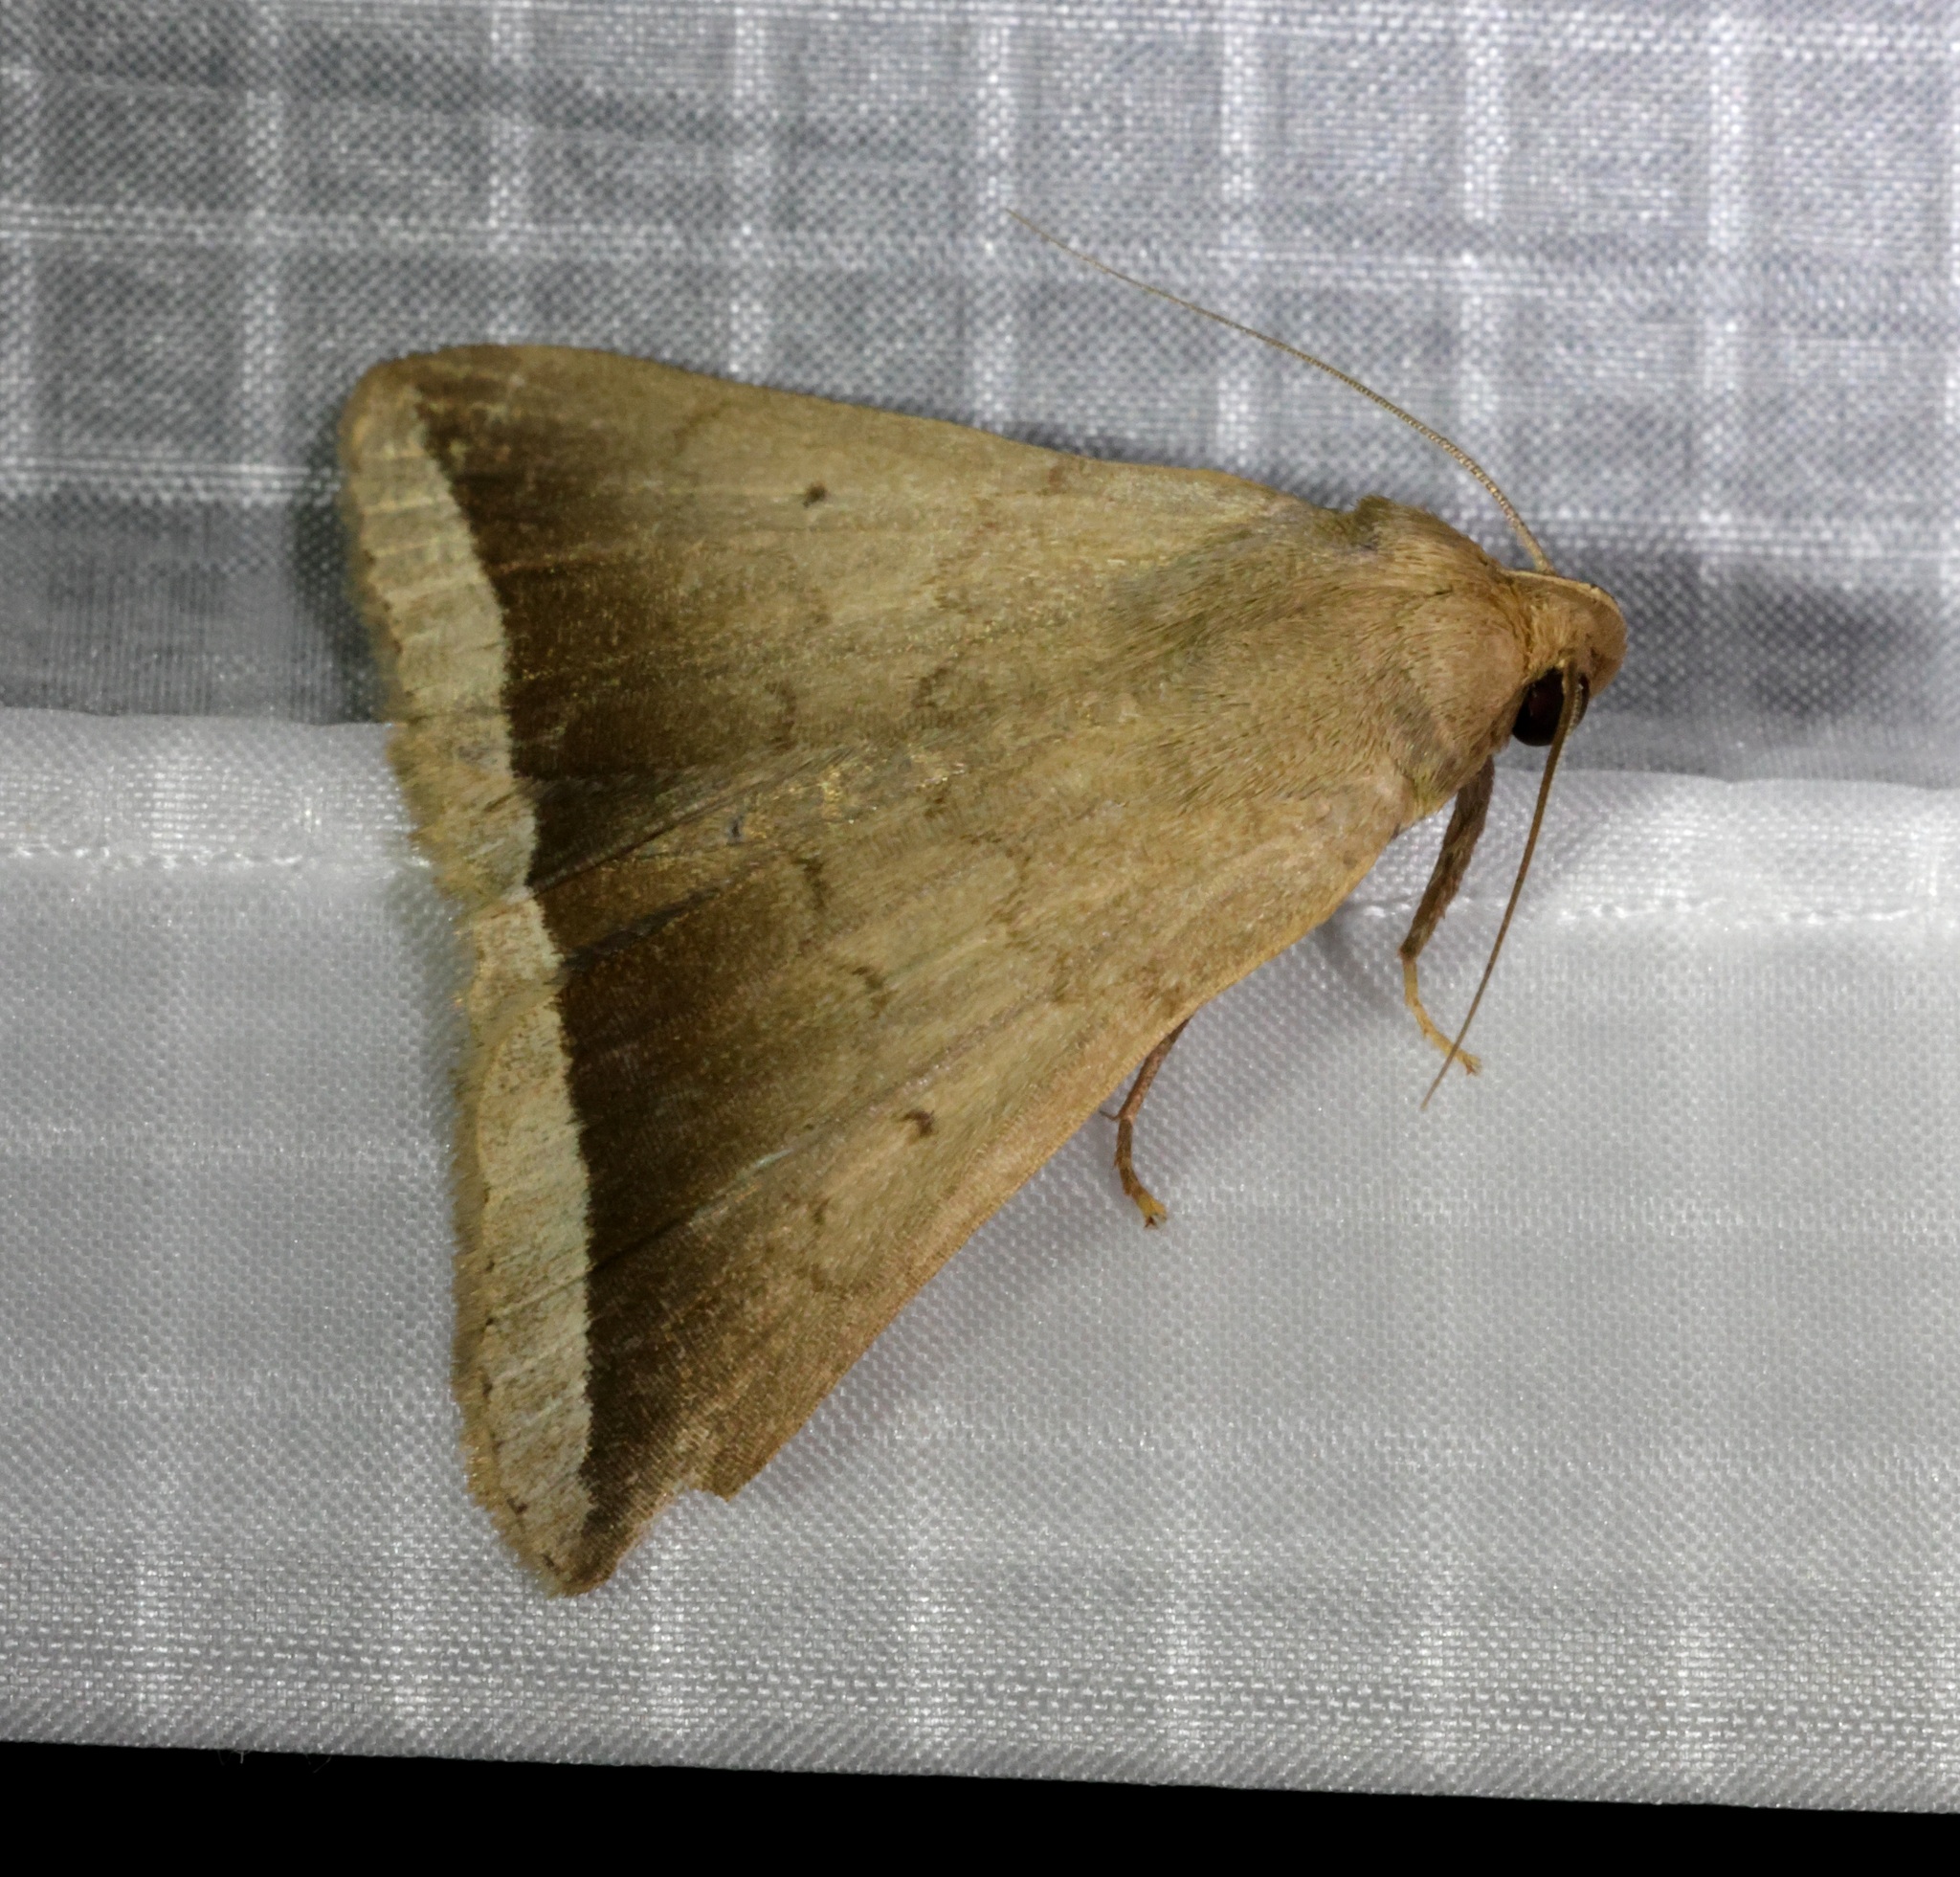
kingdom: Animalia
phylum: Arthropoda
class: Insecta
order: Lepidoptera
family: Erebidae
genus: Simplicia
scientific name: Simplicia bimarginata
